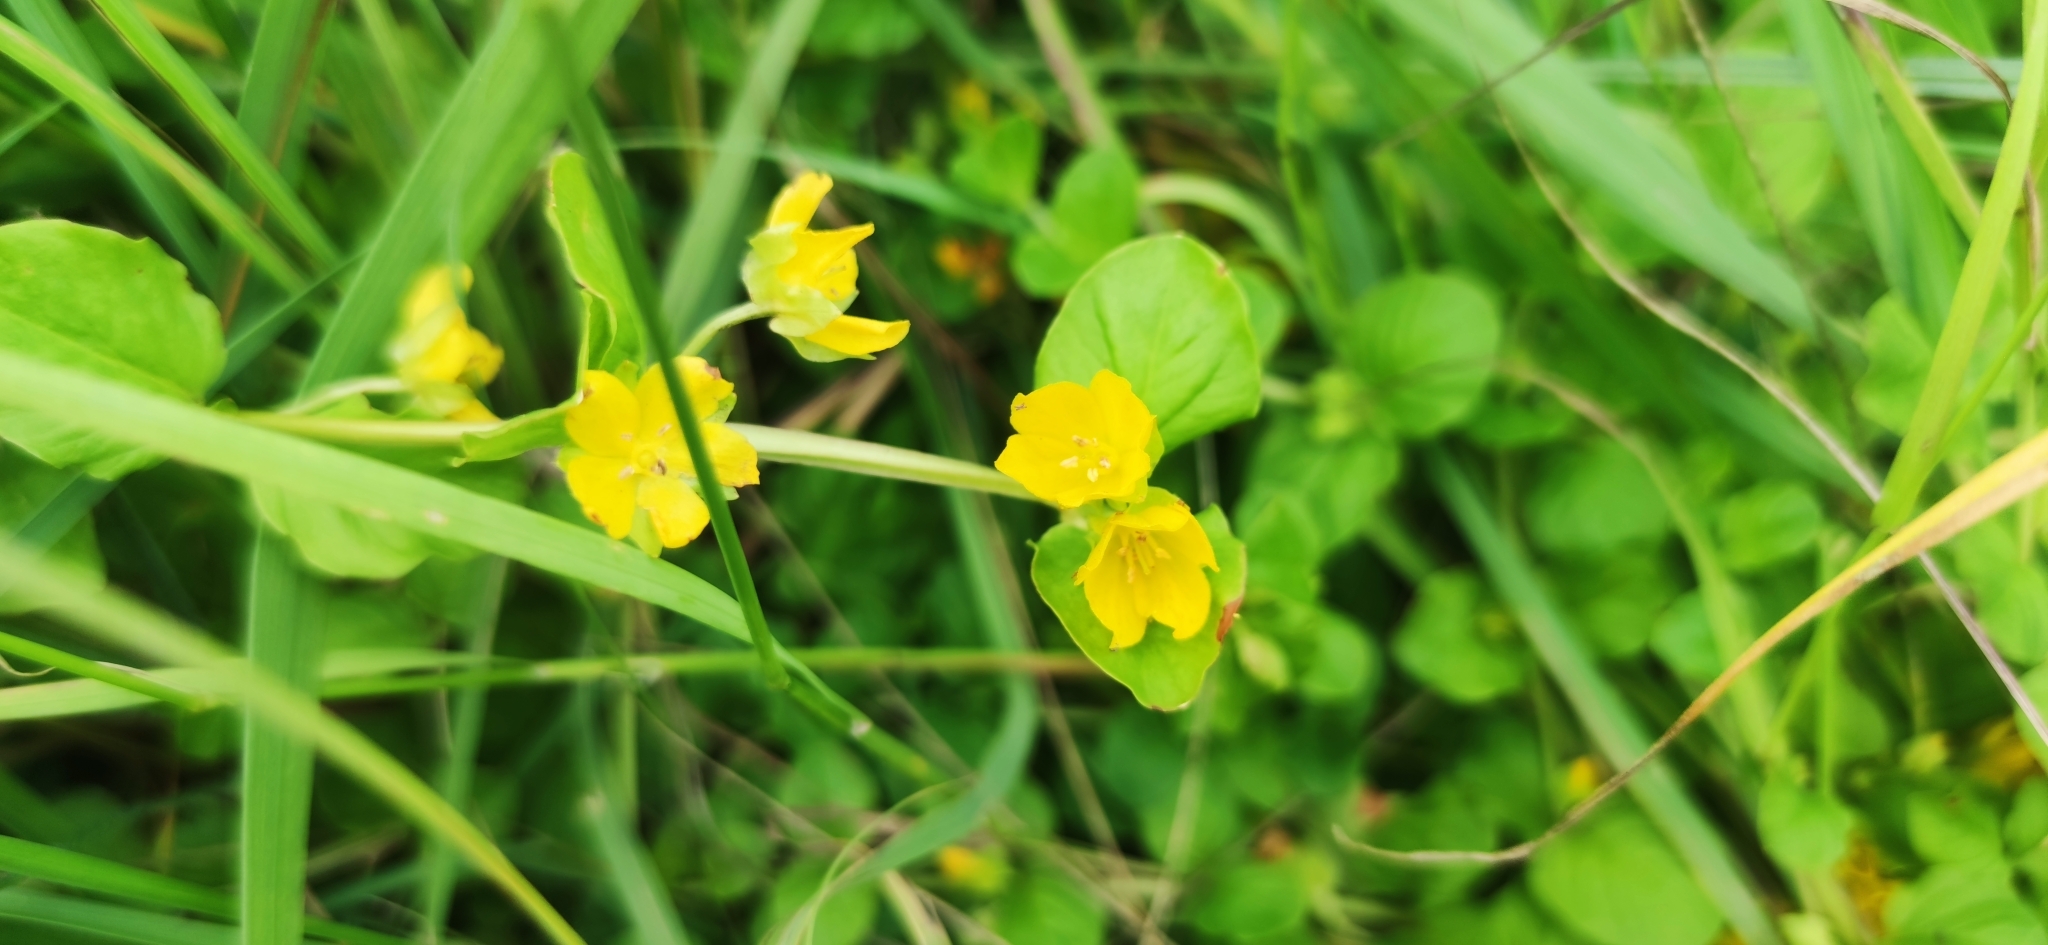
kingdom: Plantae
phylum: Tracheophyta
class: Magnoliopsida
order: Ericales
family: Primulaceae
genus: Lysimachia
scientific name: Lysimachia nummularia
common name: Moneywort
